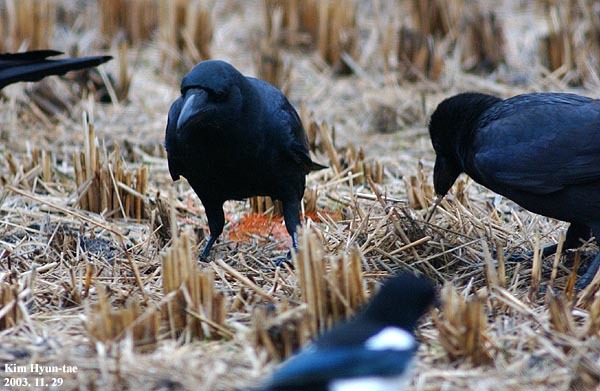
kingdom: Animalia
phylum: Chordata
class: Aves
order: Passeriformes
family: Corvidae
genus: Corvus
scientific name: Corvus macrorhynchos
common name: Large-billed crow
